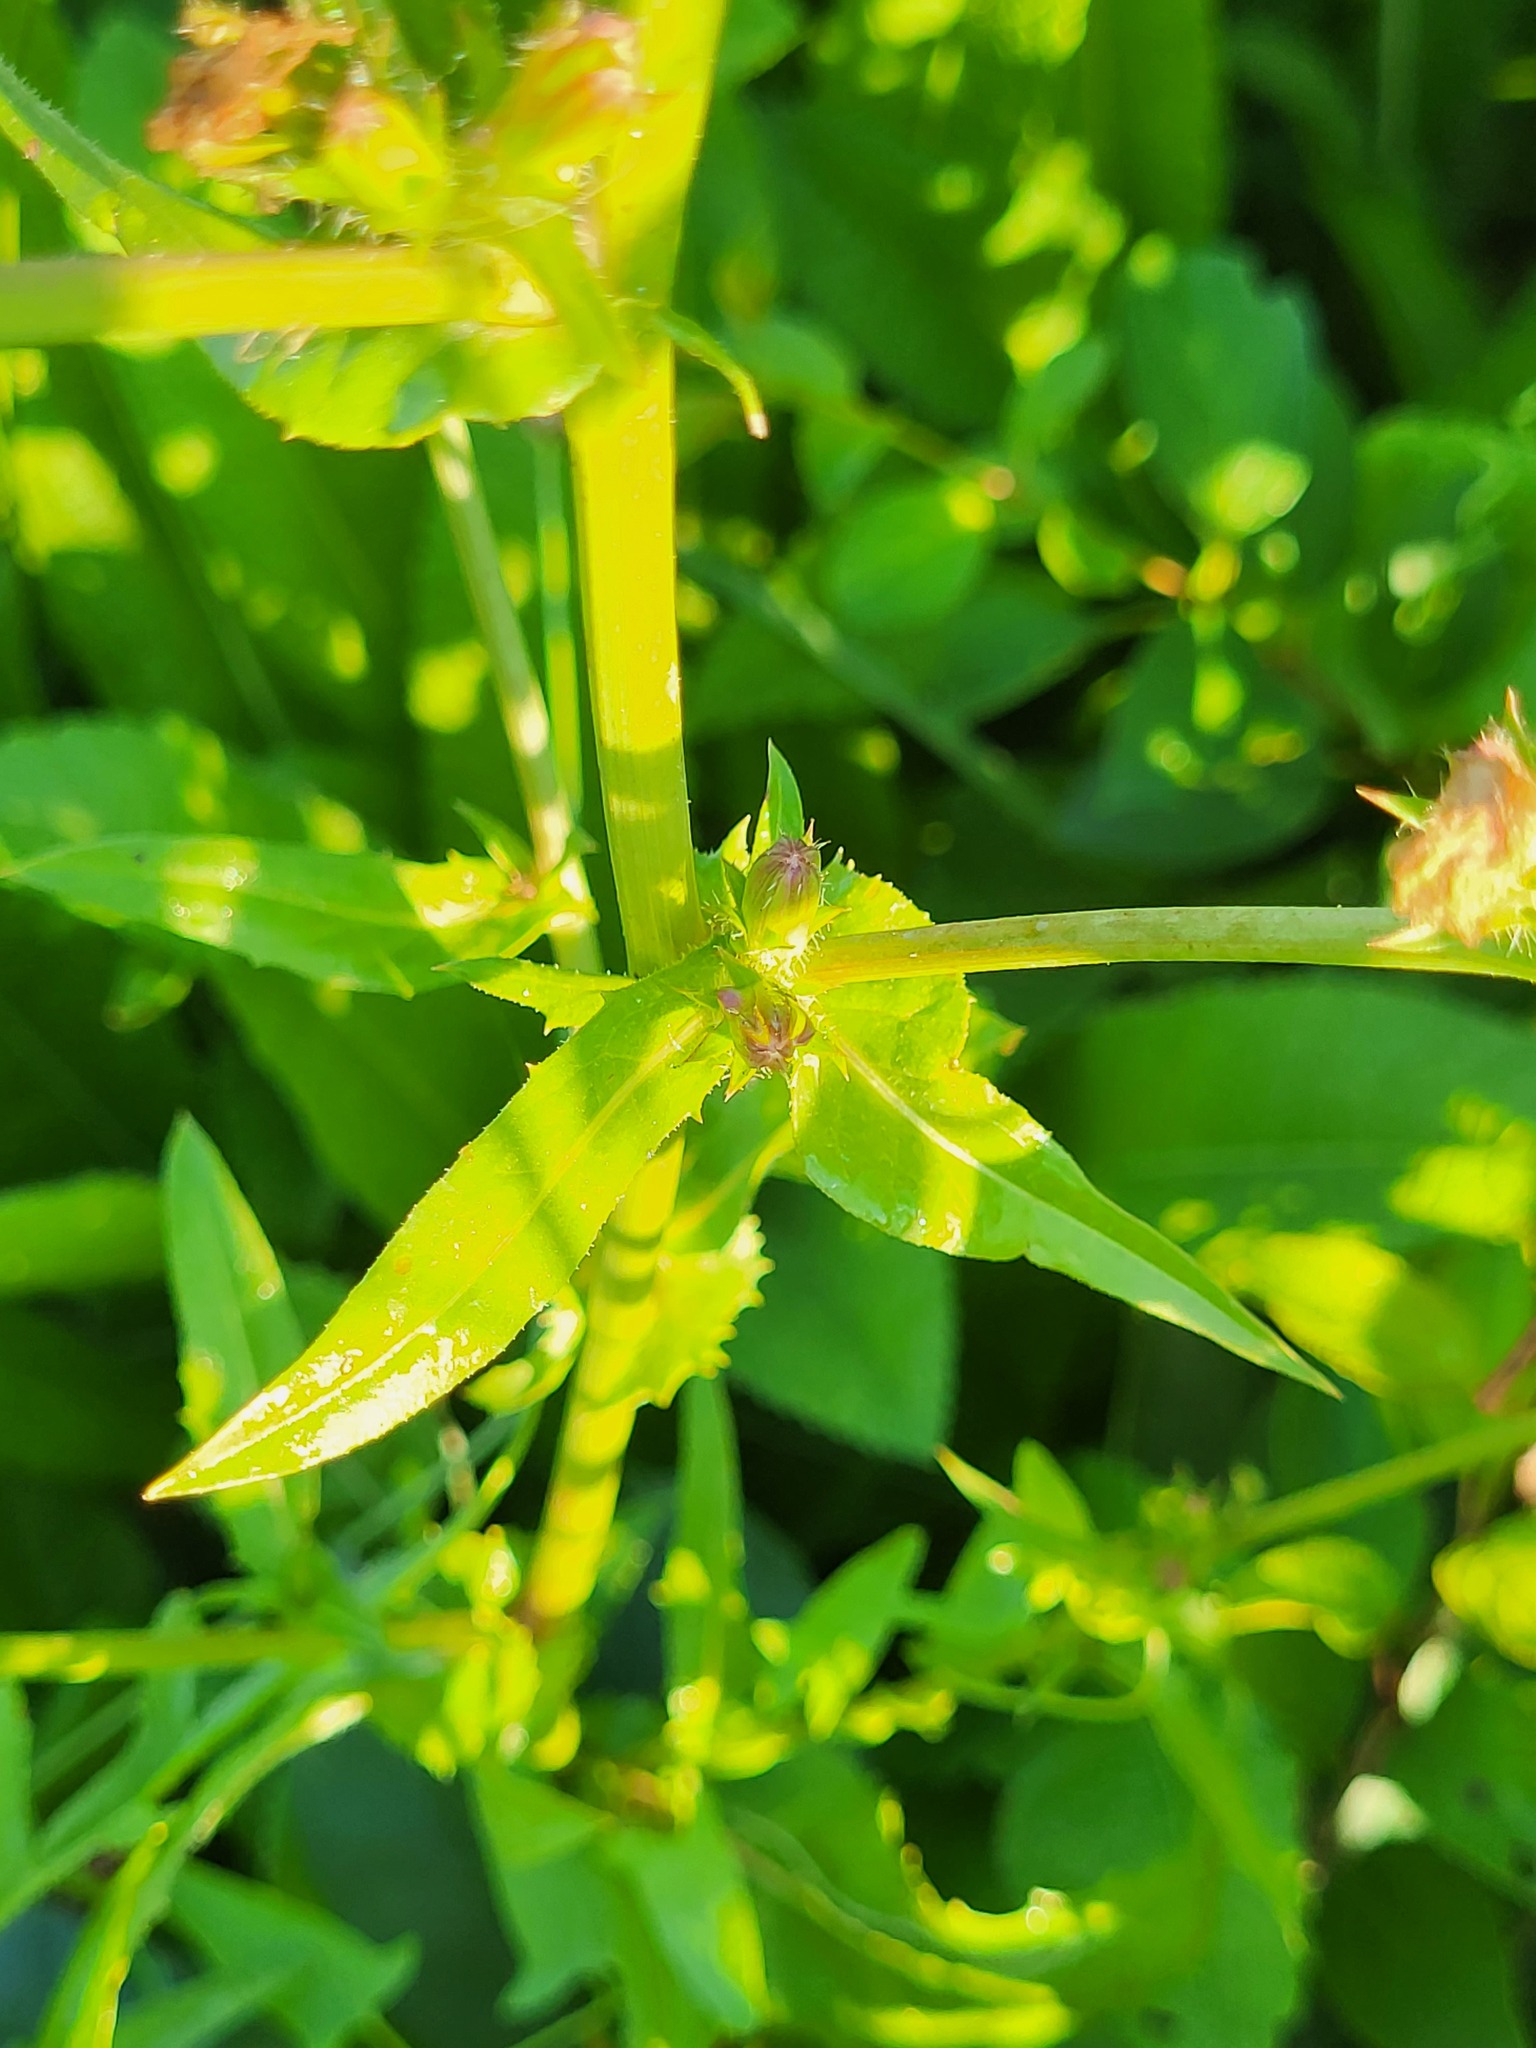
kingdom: Plantae
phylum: Tracheophyta
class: Magnoliopsida
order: Asterales
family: Asteraceae
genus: Cichorium
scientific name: Cichorium intybus
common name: Chicory
